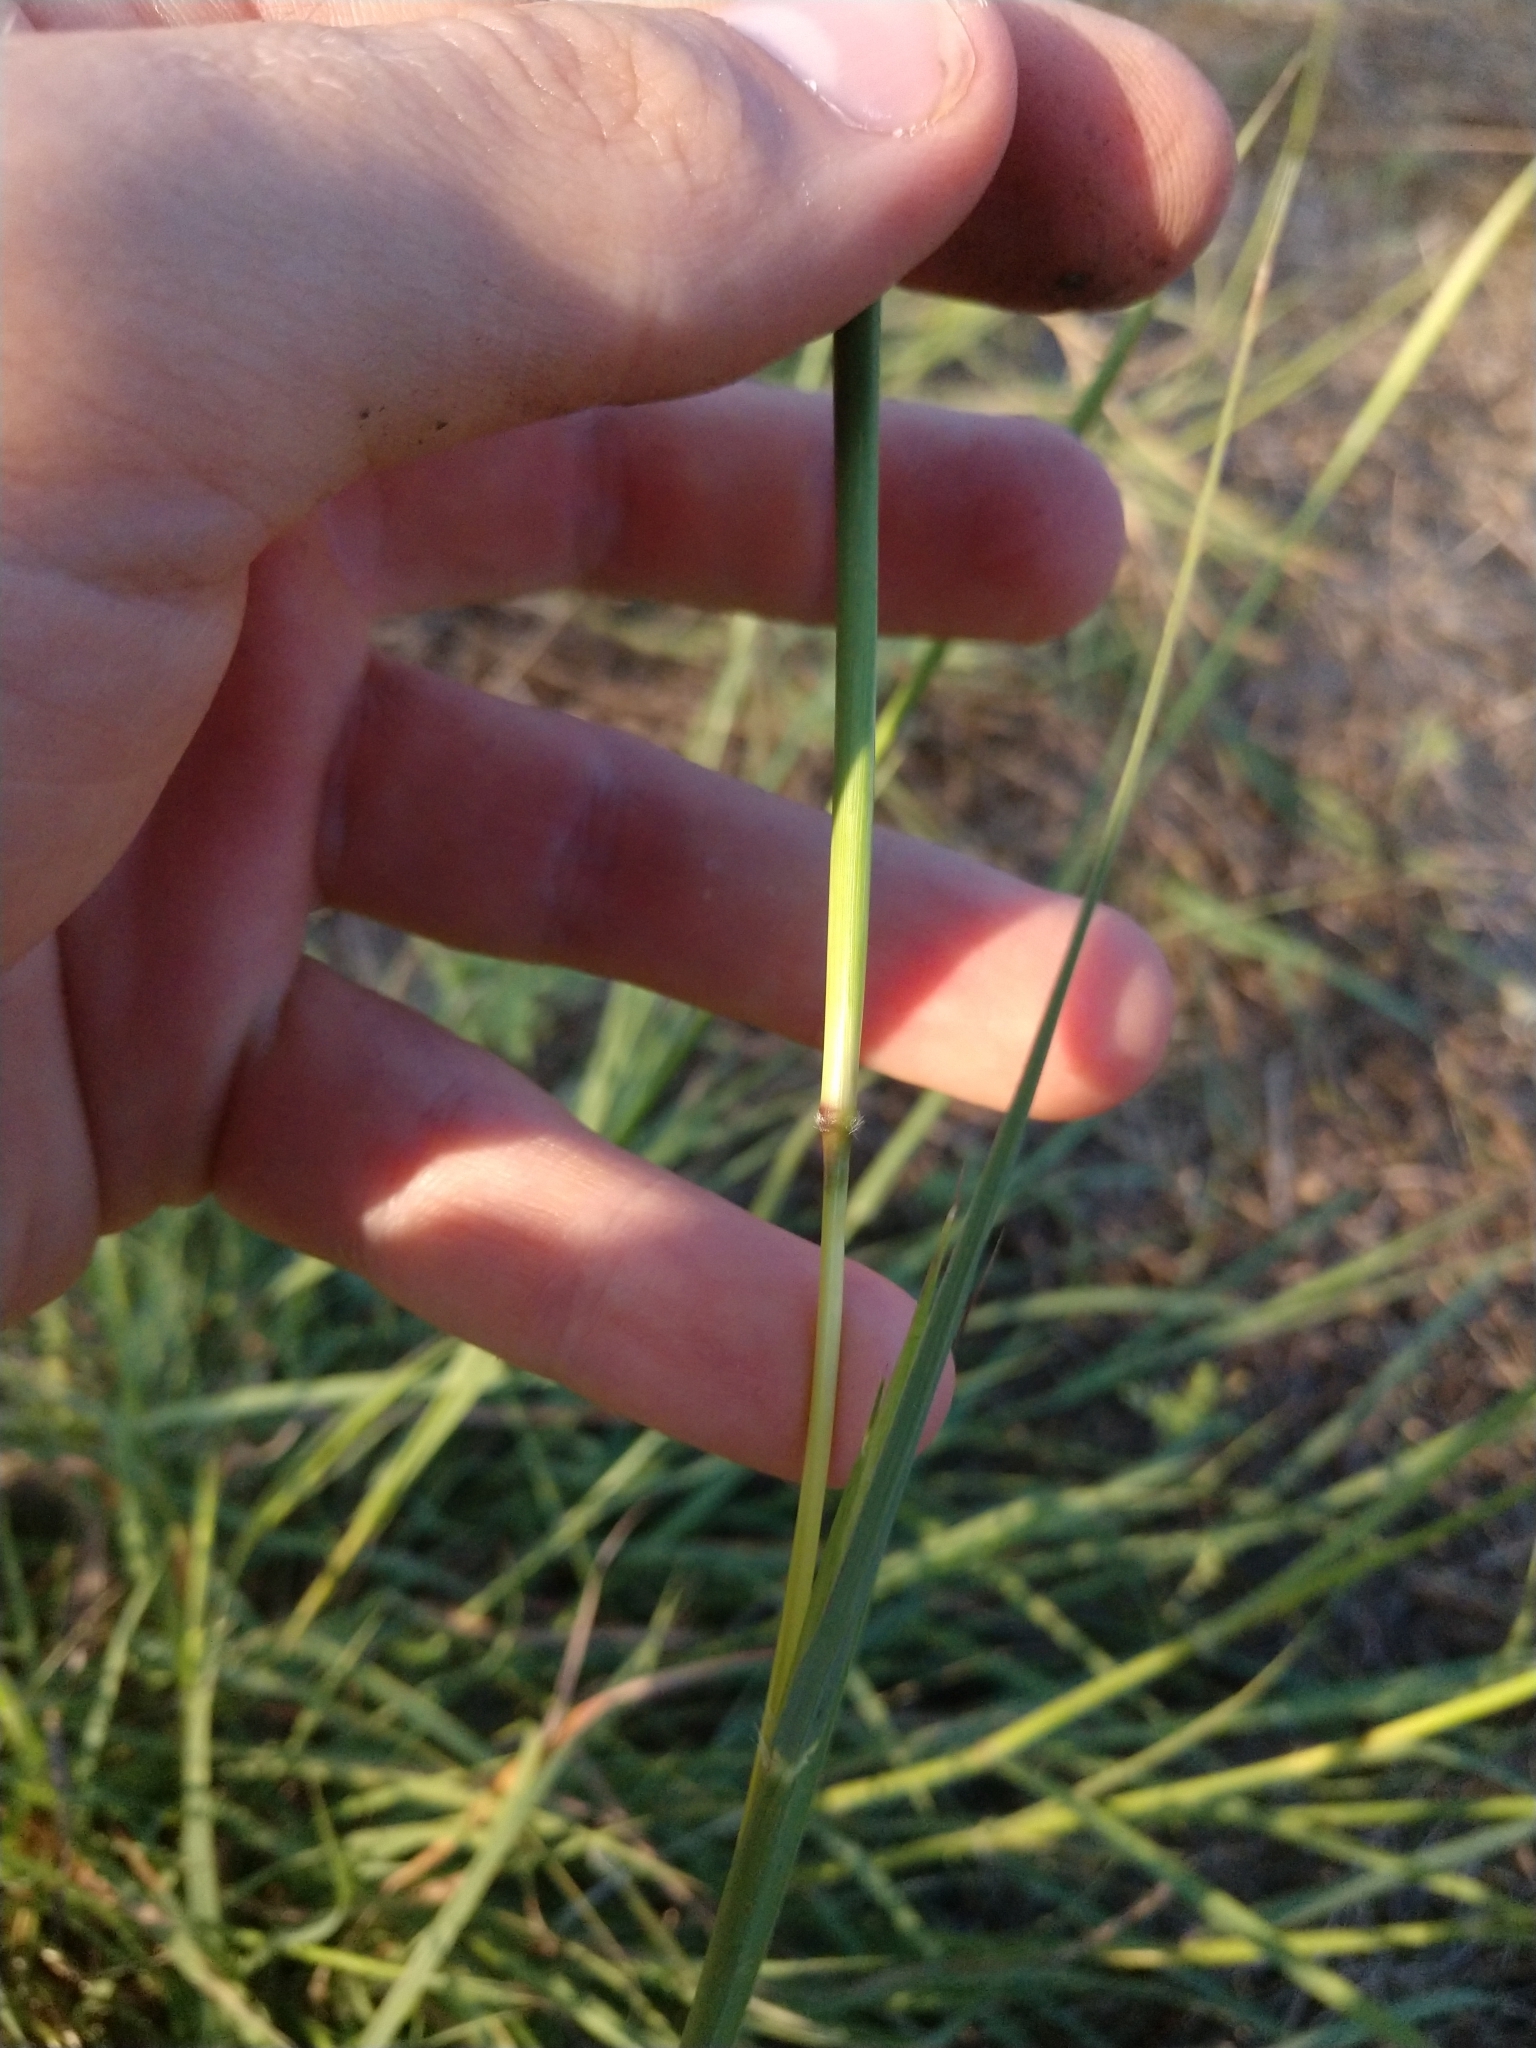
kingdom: Plantae
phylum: Tracheophyta
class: Liliopsida
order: Poales
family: Poaceae
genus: Bothriochloa
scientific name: Bothriochloa ischaemum
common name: Yellow bluestem
